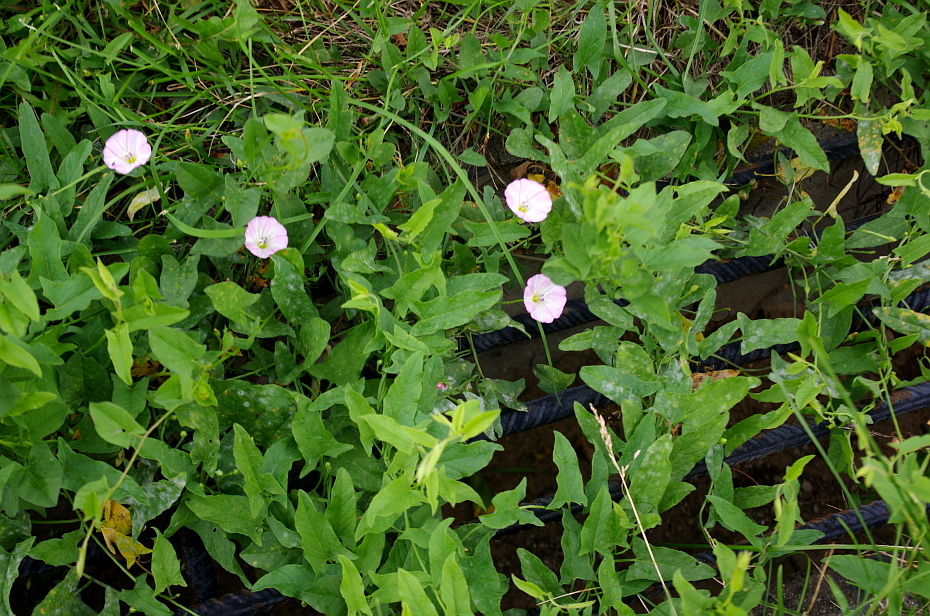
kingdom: Plantae
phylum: Tracheophyta
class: Magnoliopsida
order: Solanales
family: Convolvulaceae
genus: Convolvulus
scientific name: Convolvulus arvensis
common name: Field bindweed
